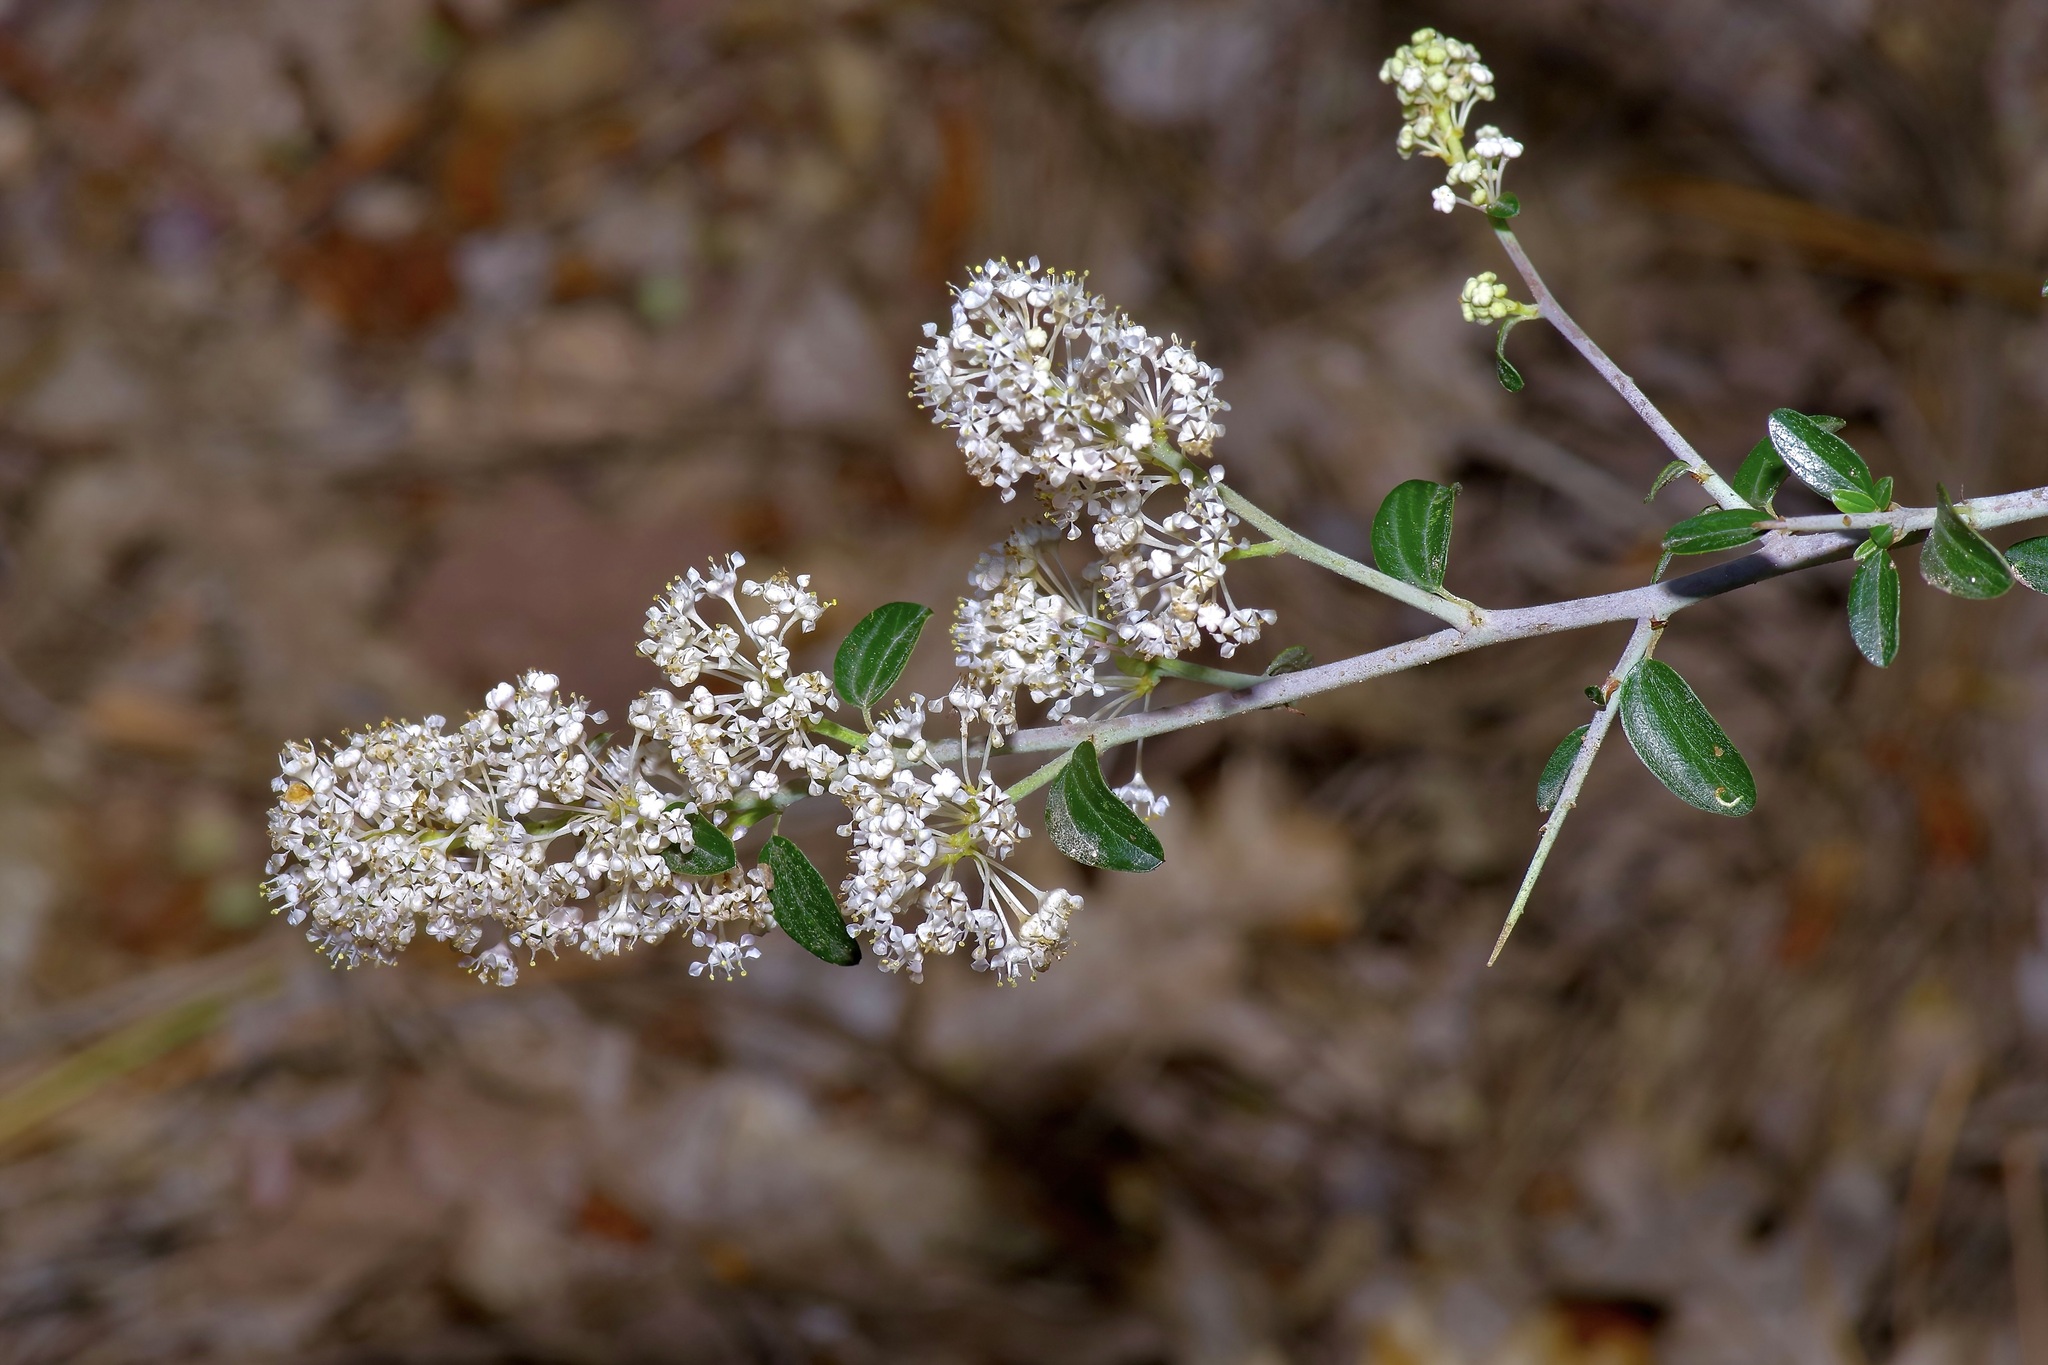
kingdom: Plantae
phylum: Tracheophyta
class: Magnoliopsida
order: Rosales
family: Rhamnaceae
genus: Ceanothus
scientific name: Ceanothus fendleri
